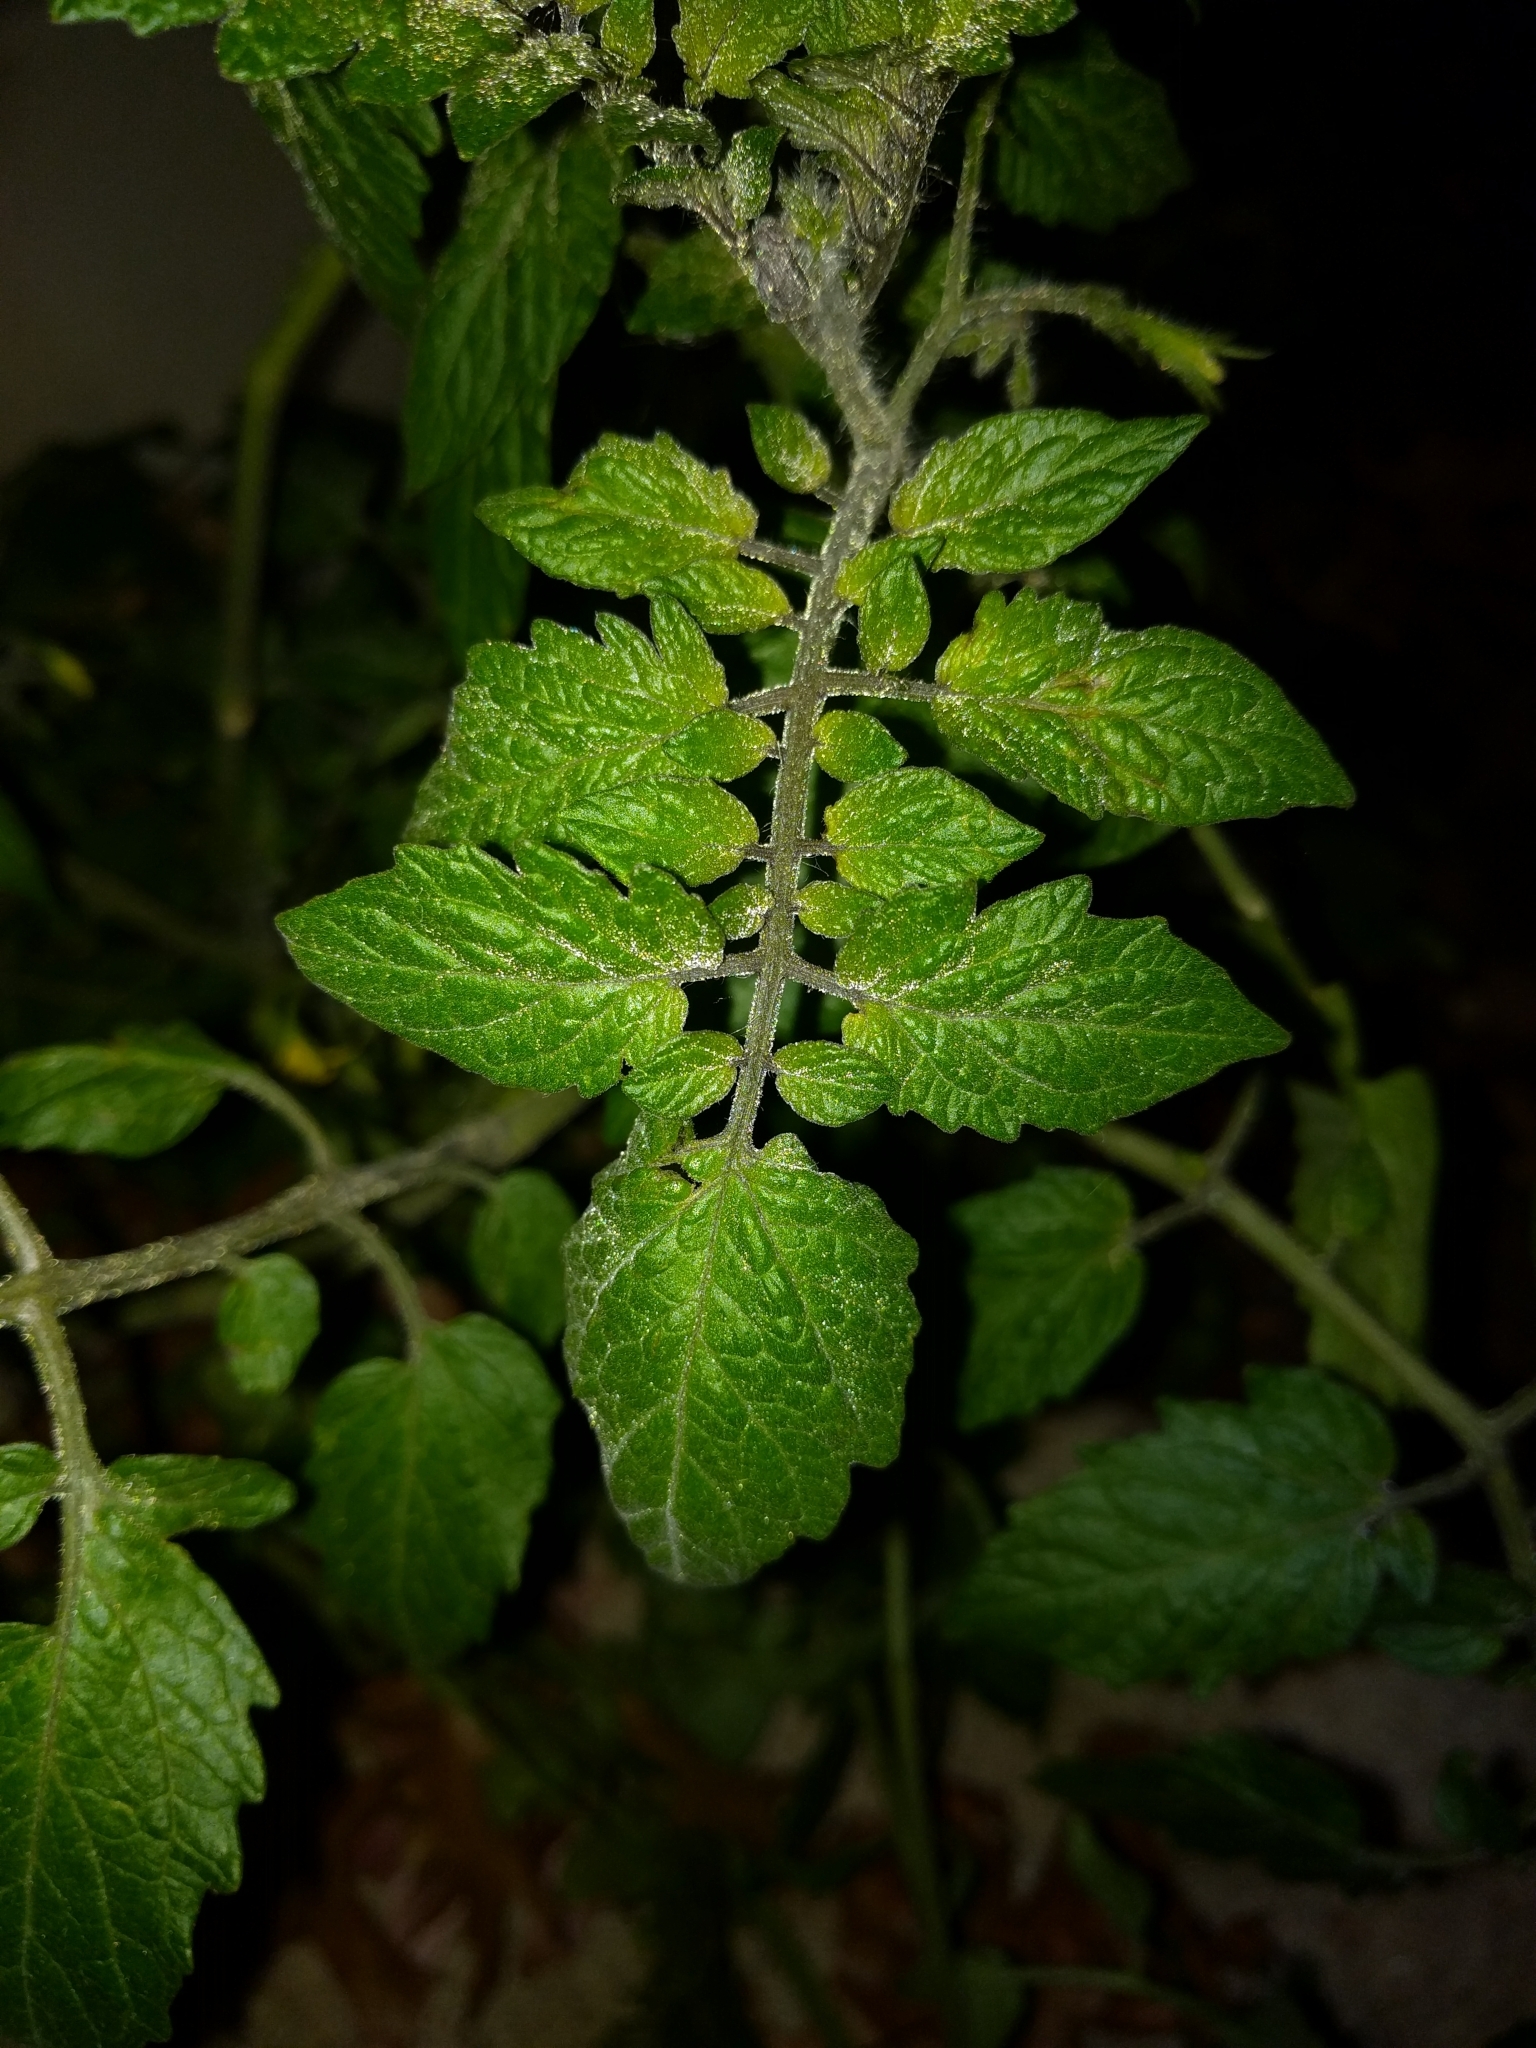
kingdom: Plantae
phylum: Tracheophyta
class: Magnoliopsida
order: Solanales
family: Solanaceae
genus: Solanum
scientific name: Solanum lycopersicum
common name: Garden tomato
